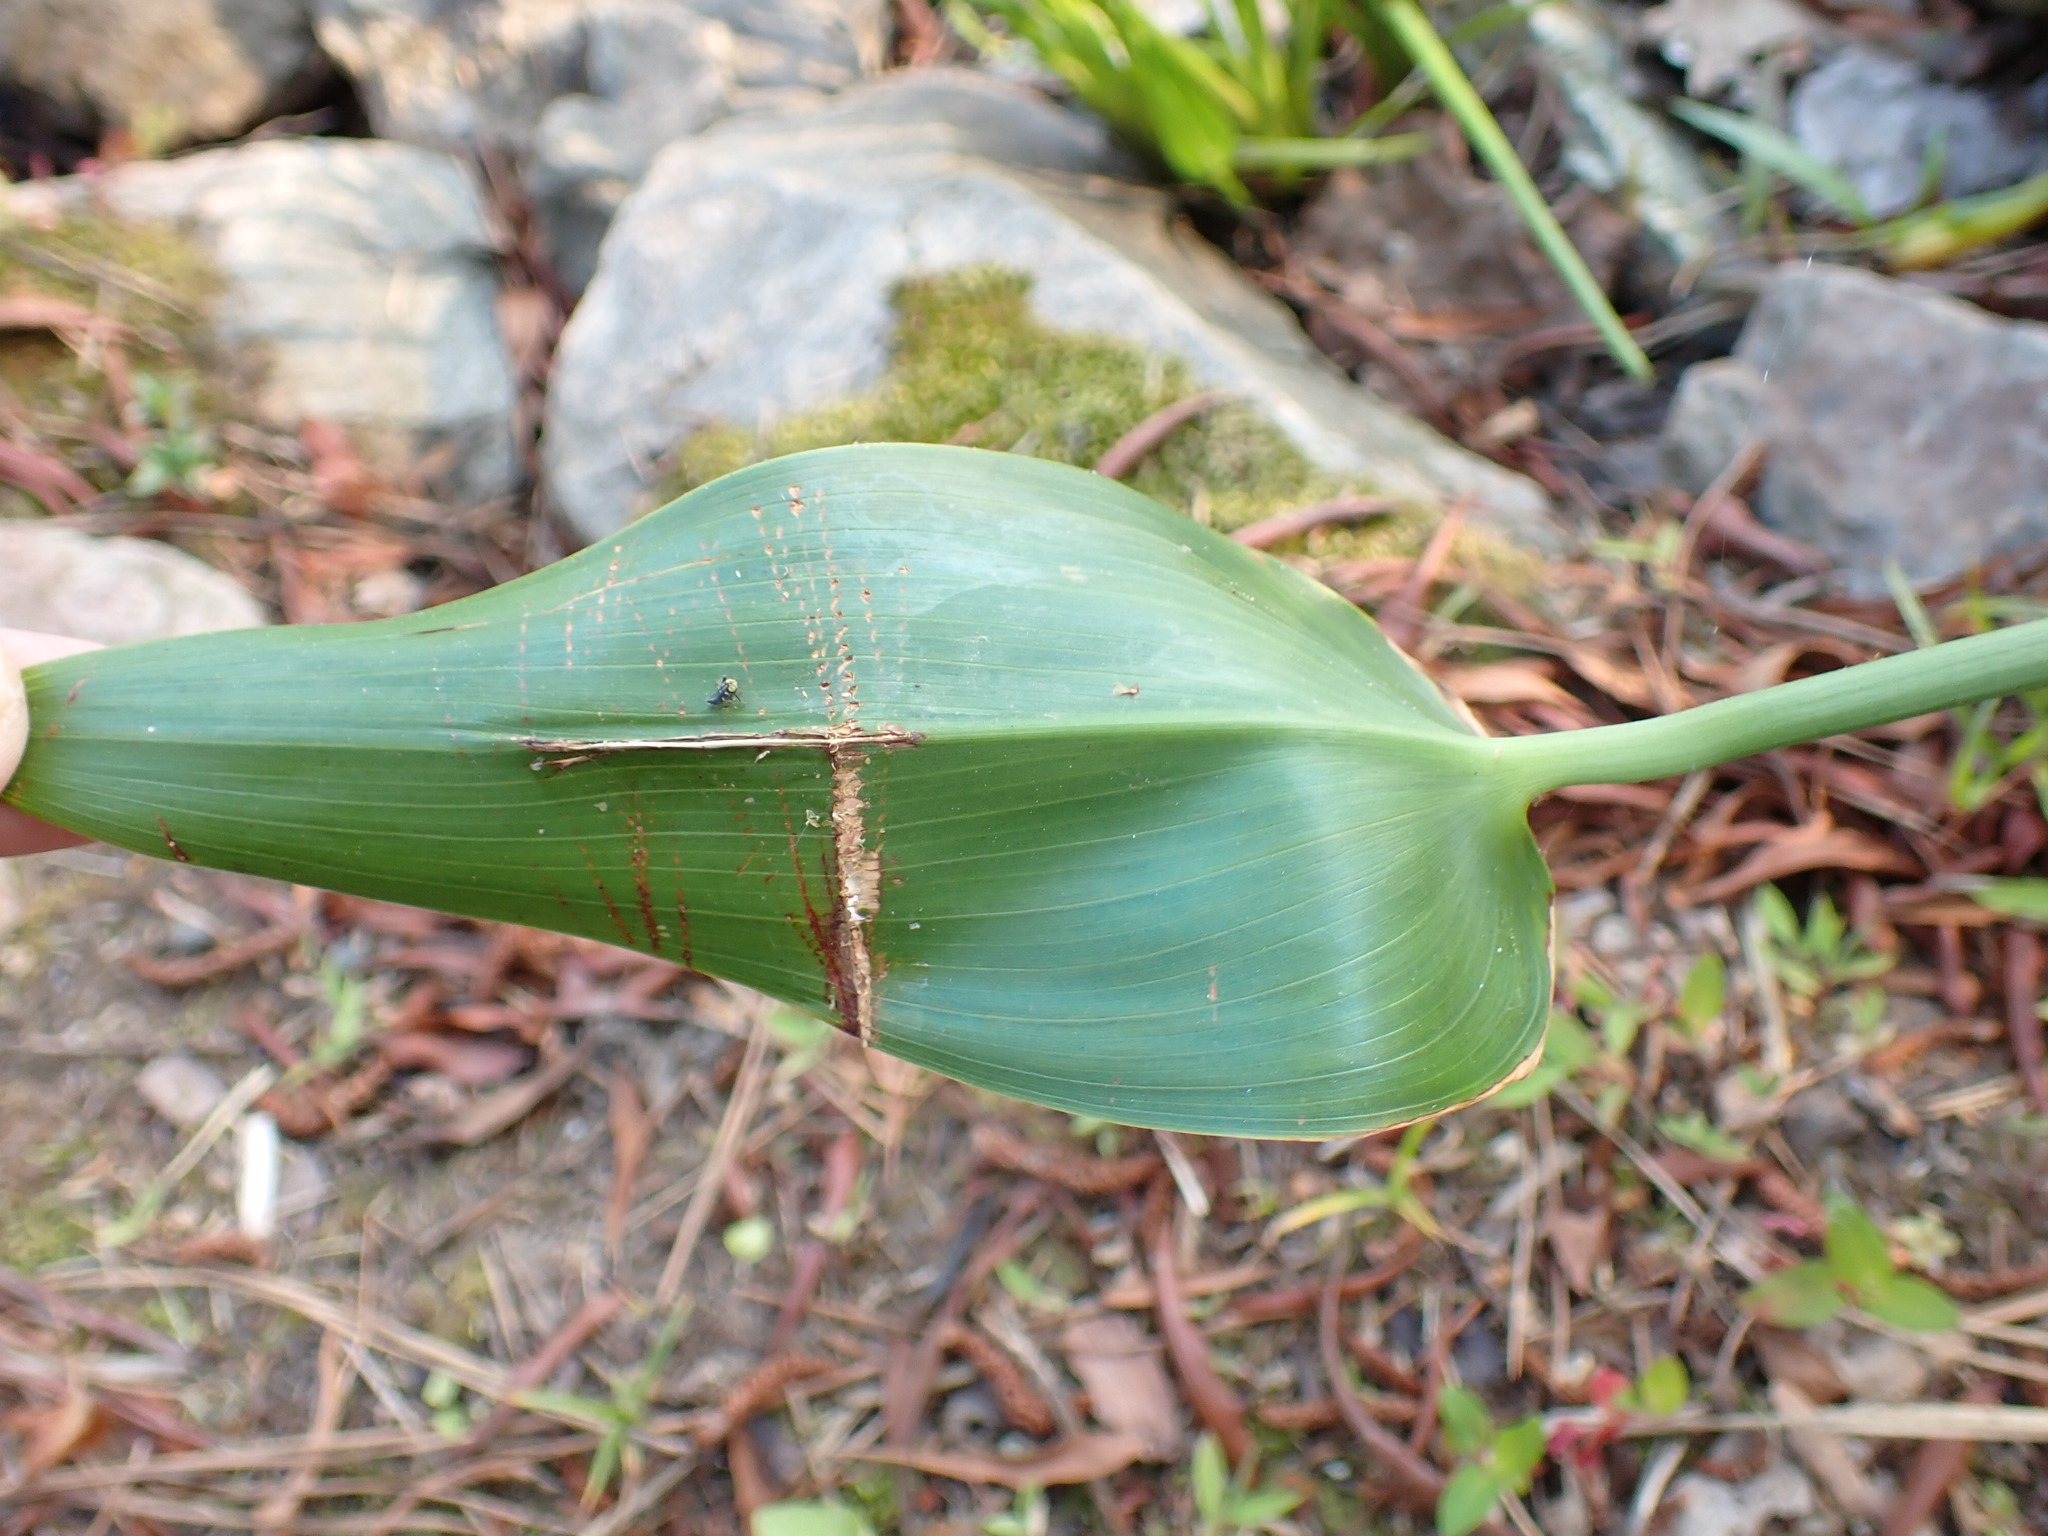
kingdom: Plantae
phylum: Tracheophyta
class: Liliopsida
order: Commelinales
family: Pontederiaceae
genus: Pontederia
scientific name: Pontederia cordata
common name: Pickerelweed
